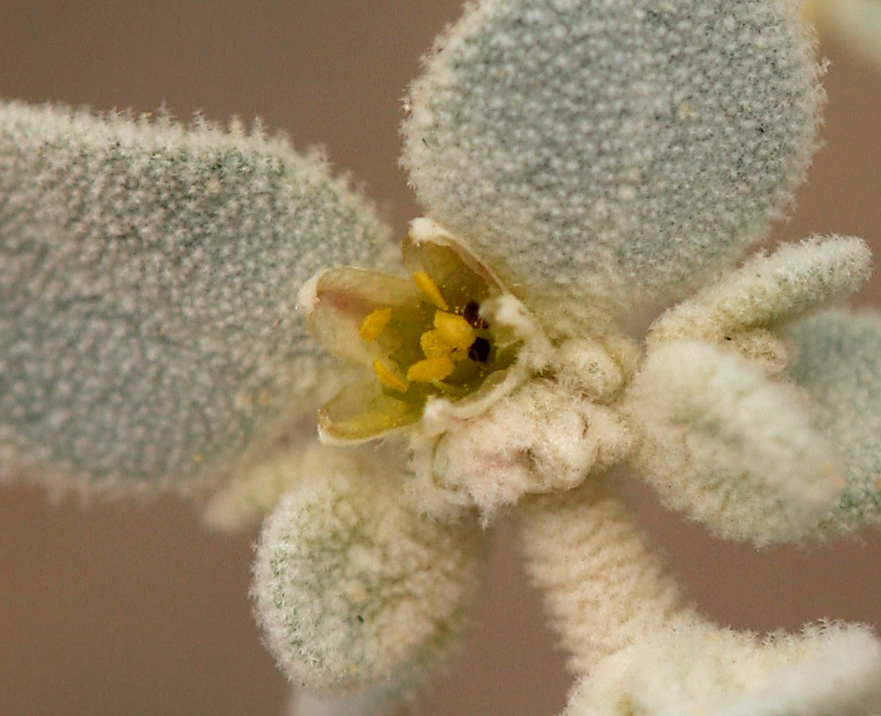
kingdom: Plantae
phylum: Tracheophyta
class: Magnoliopsida
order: Caryophyllales
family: Amaranthaceae
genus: Tidestromia
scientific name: Tidestromia suffruticosa
